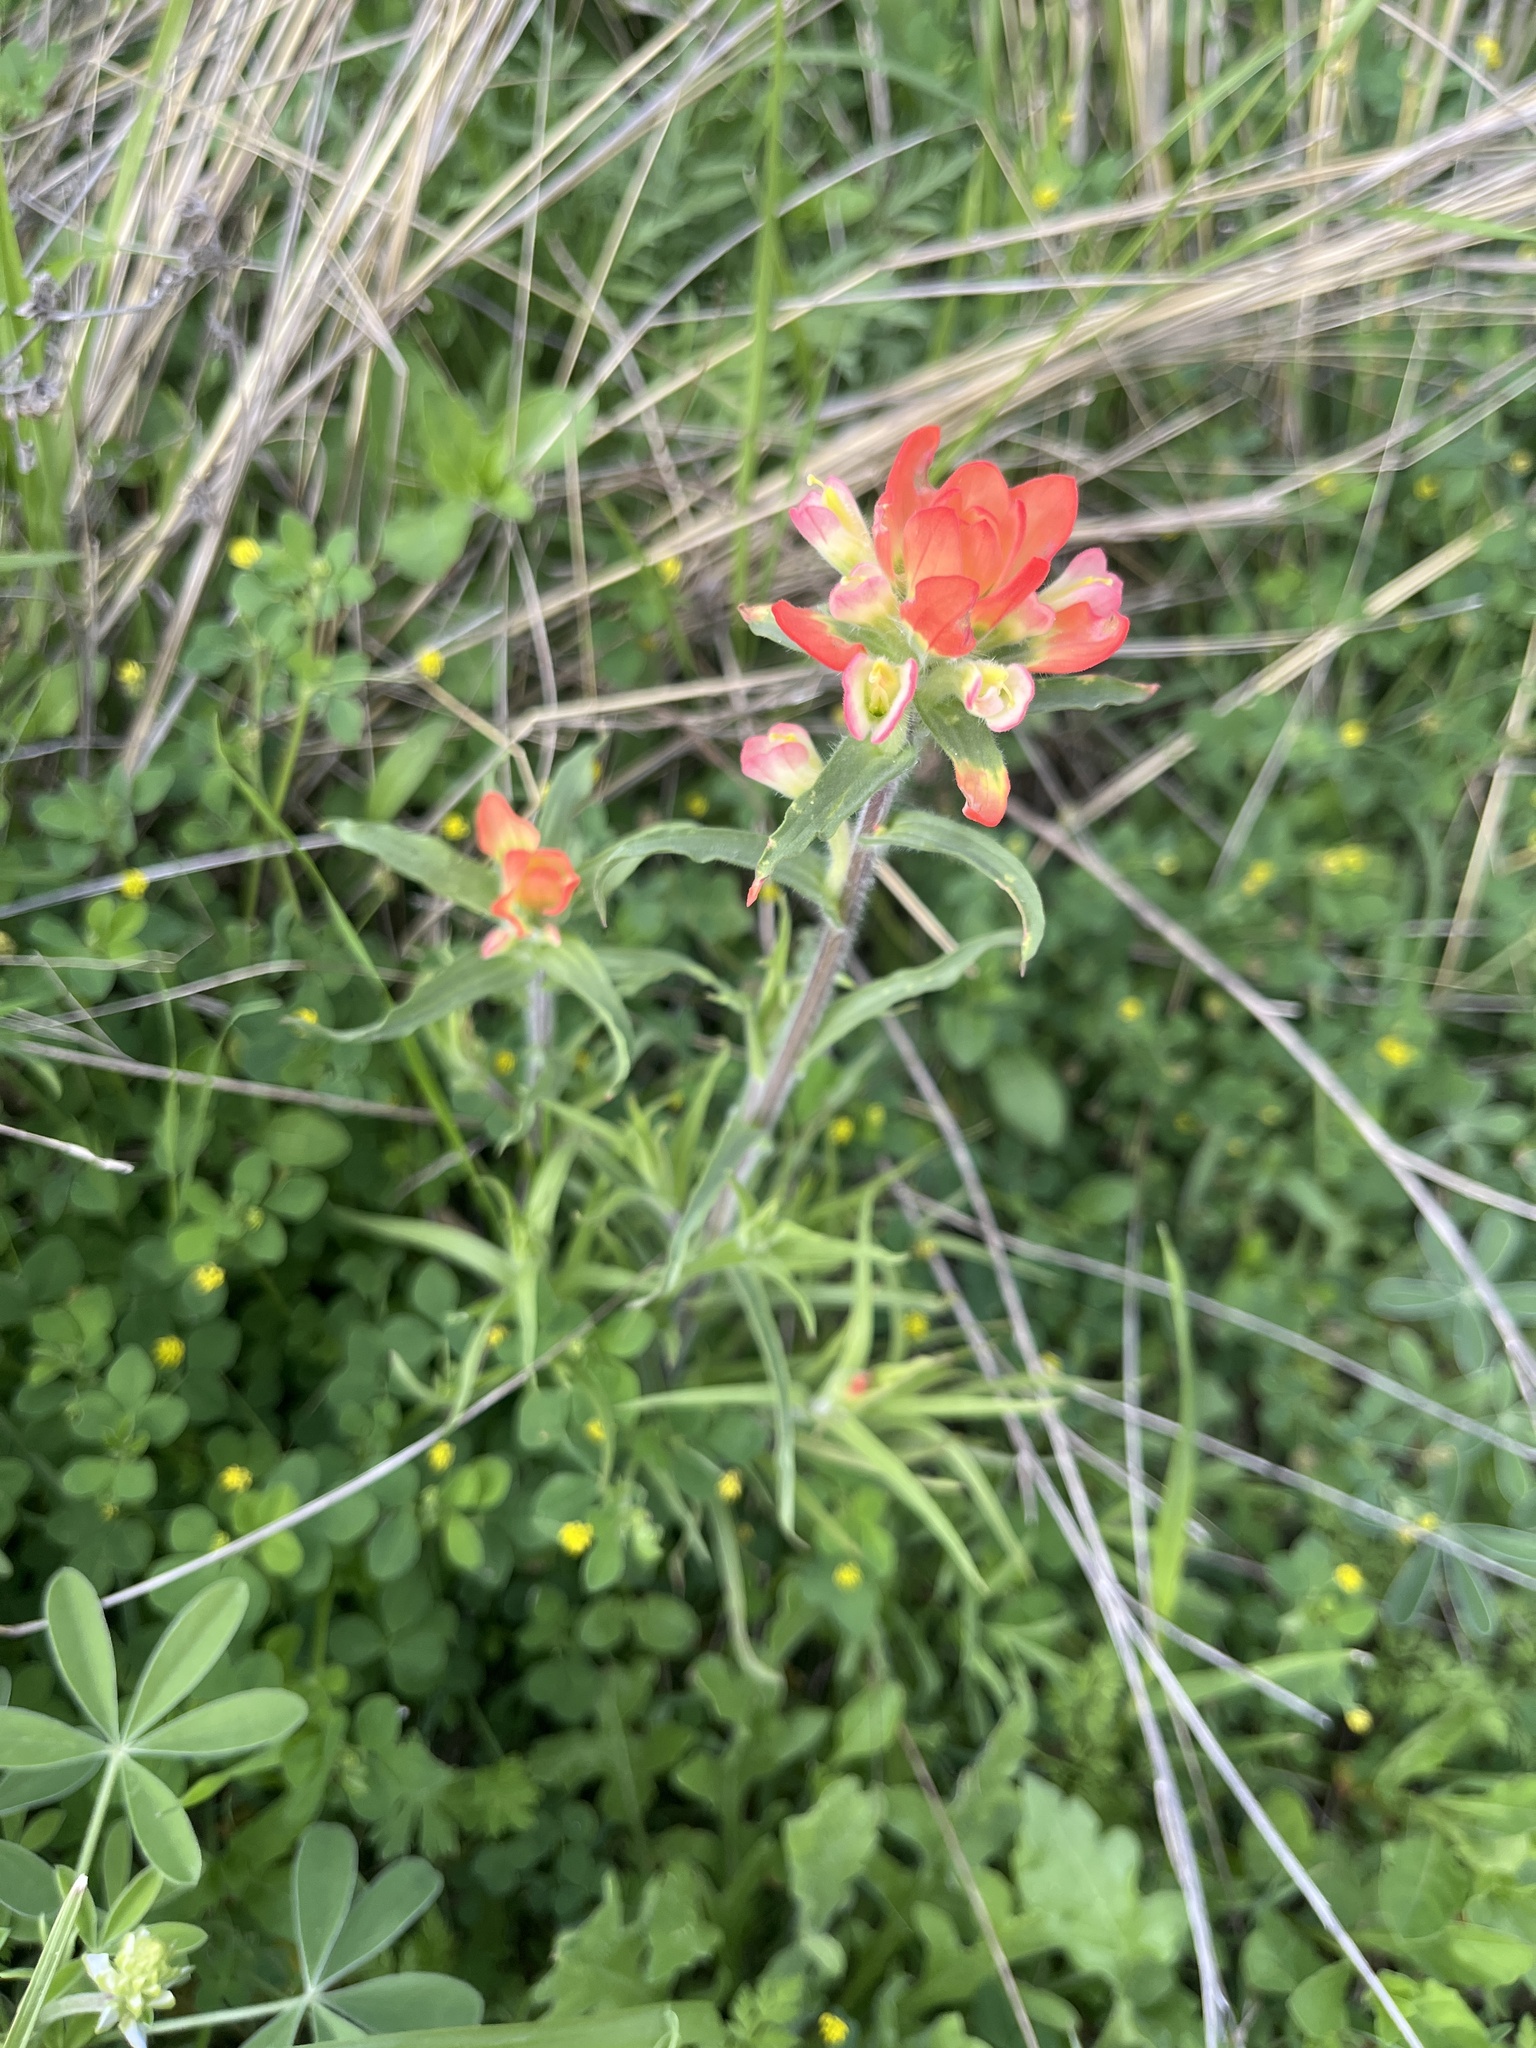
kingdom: Plantae
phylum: Tracheophyta
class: Magnoliopsida
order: Lamiales
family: Orobanchaceae
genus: Castilleja
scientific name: Castilleja indivisa
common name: Texas paintbrush
